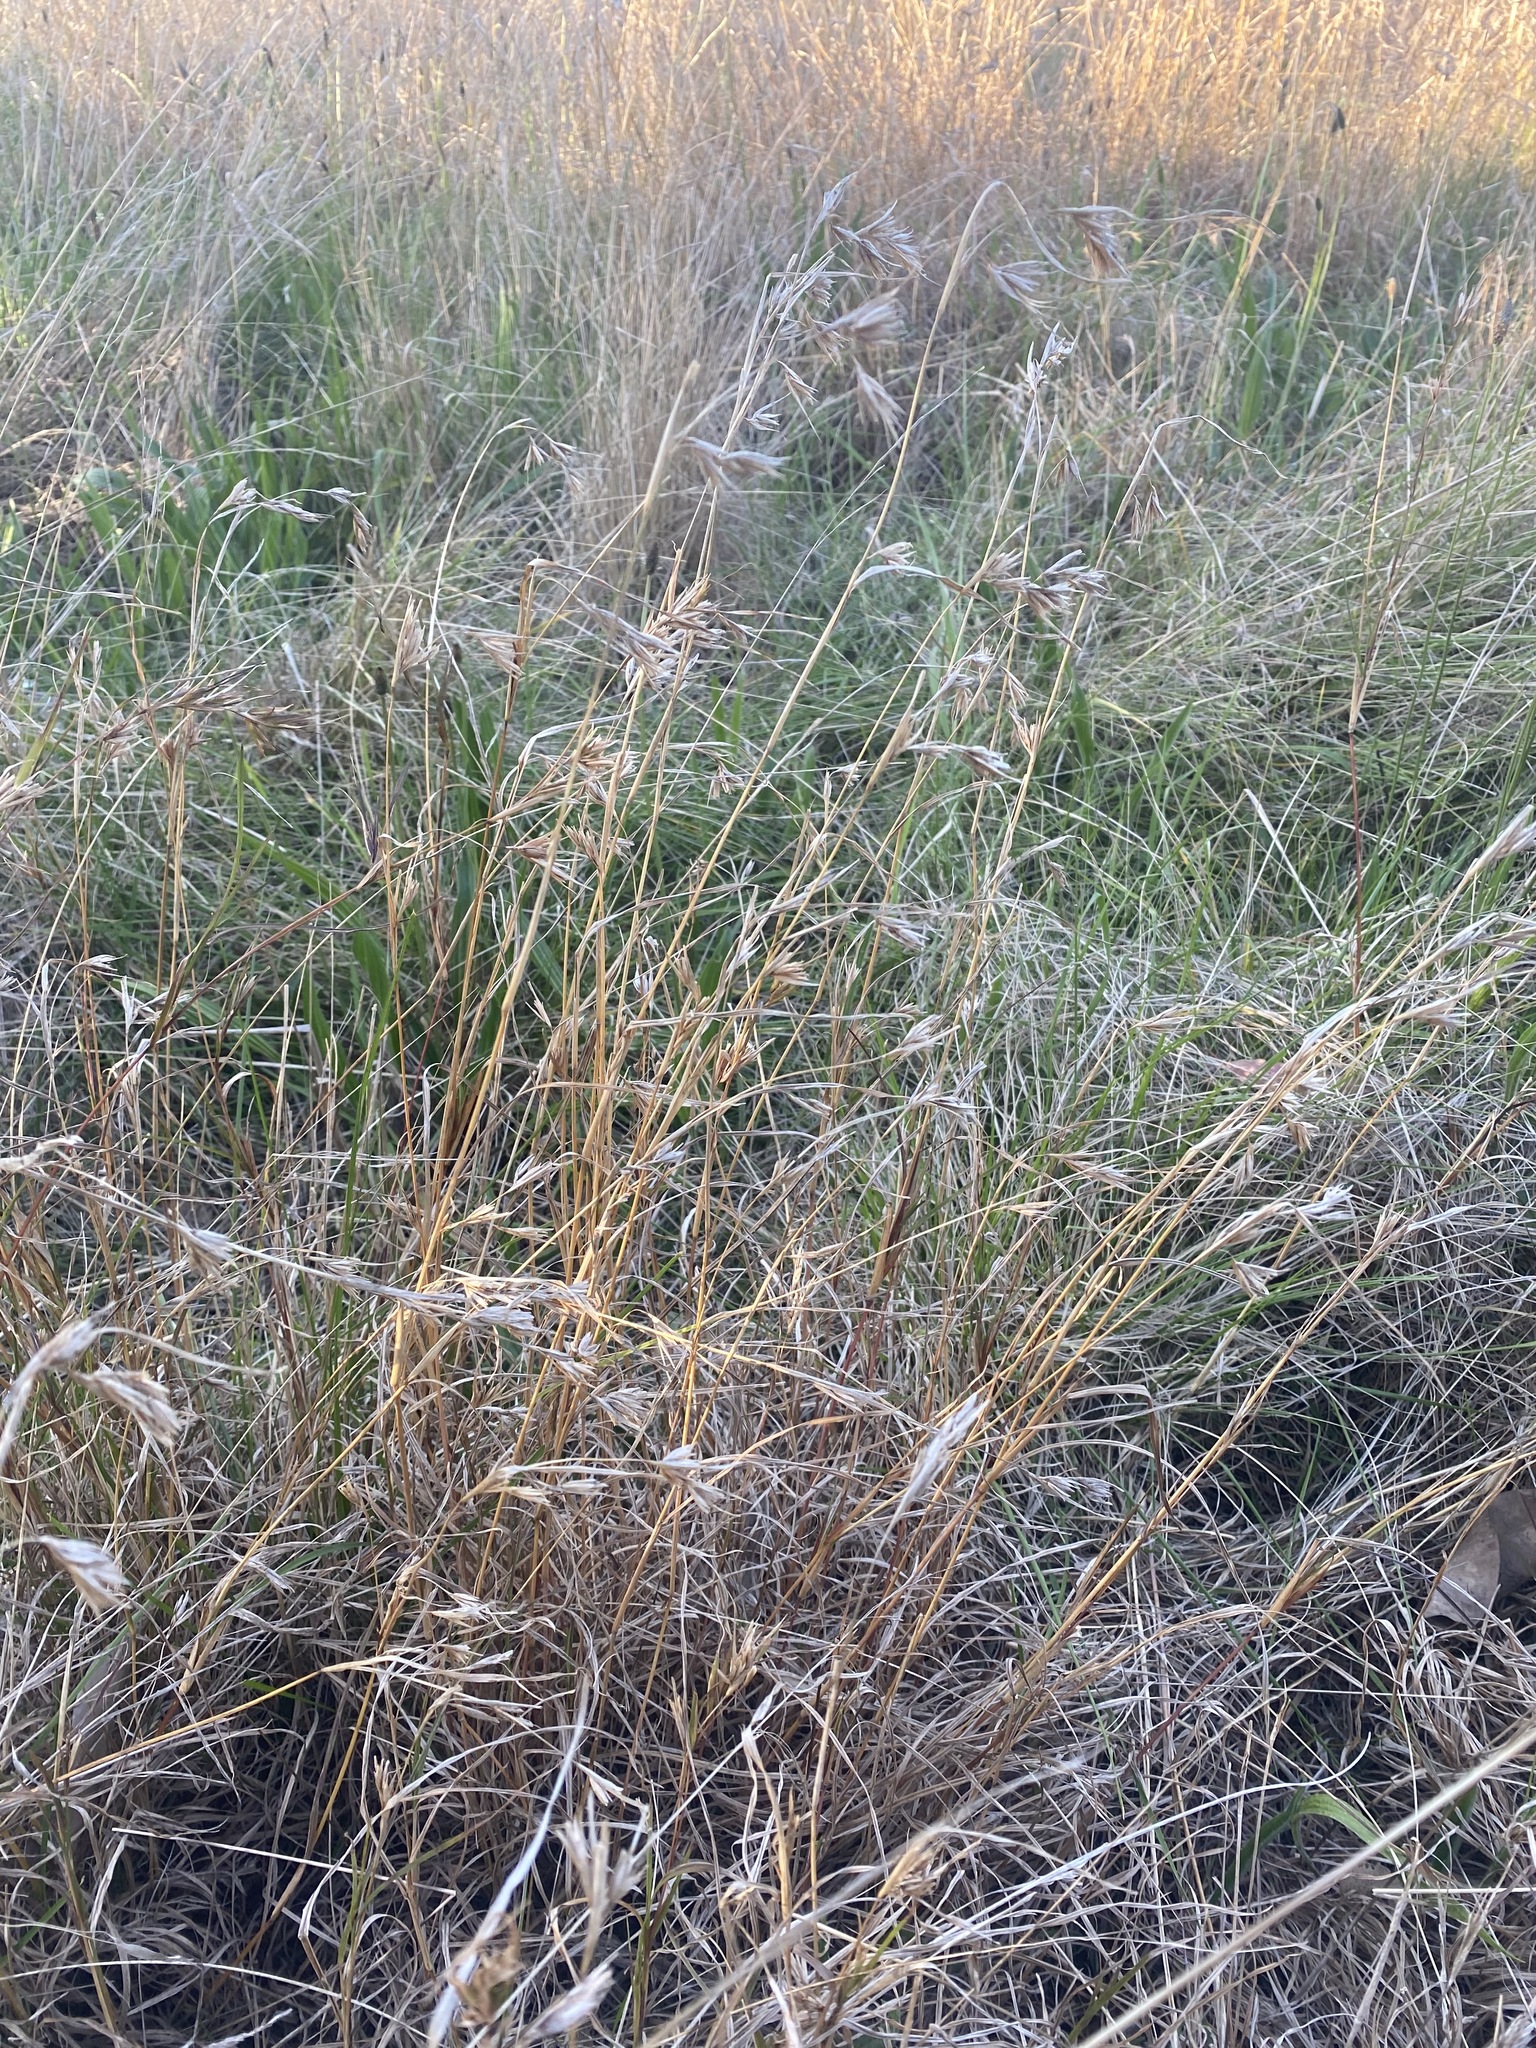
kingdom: Plantae
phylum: Tracheophyta
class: Liliopsida
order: Poales
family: Poaceae
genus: Themeda
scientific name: Themeda triandra
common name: Kangaroo grass
